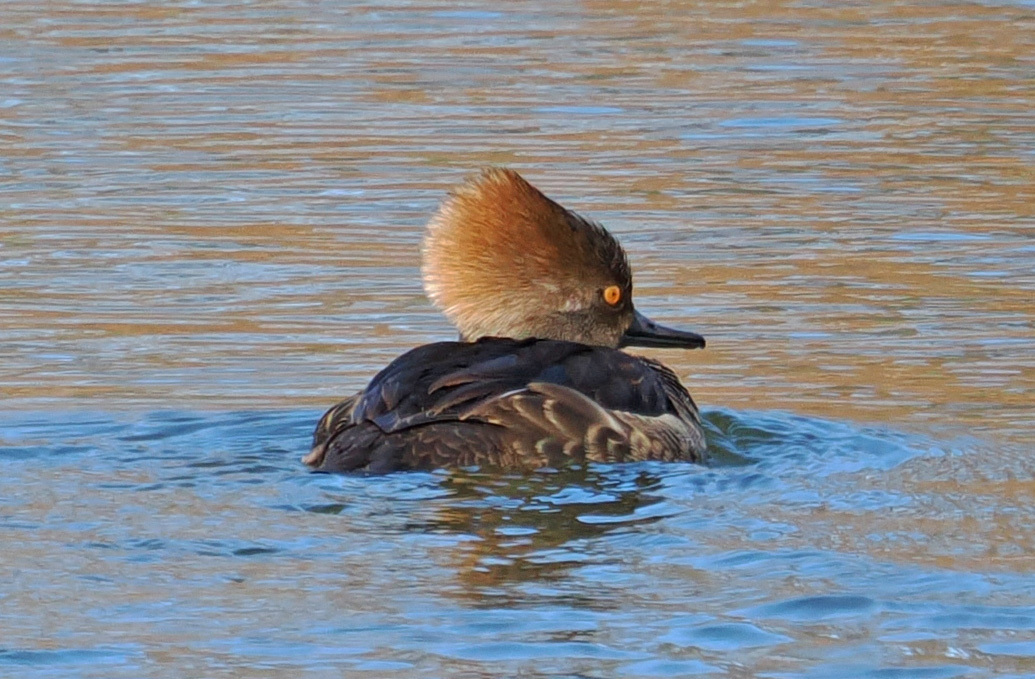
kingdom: Animalia
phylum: Chordata
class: Aves
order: Anseriformes
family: Anatidae
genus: Lophodytes
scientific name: Lophodytes cucullatus
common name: Hooded merganser
